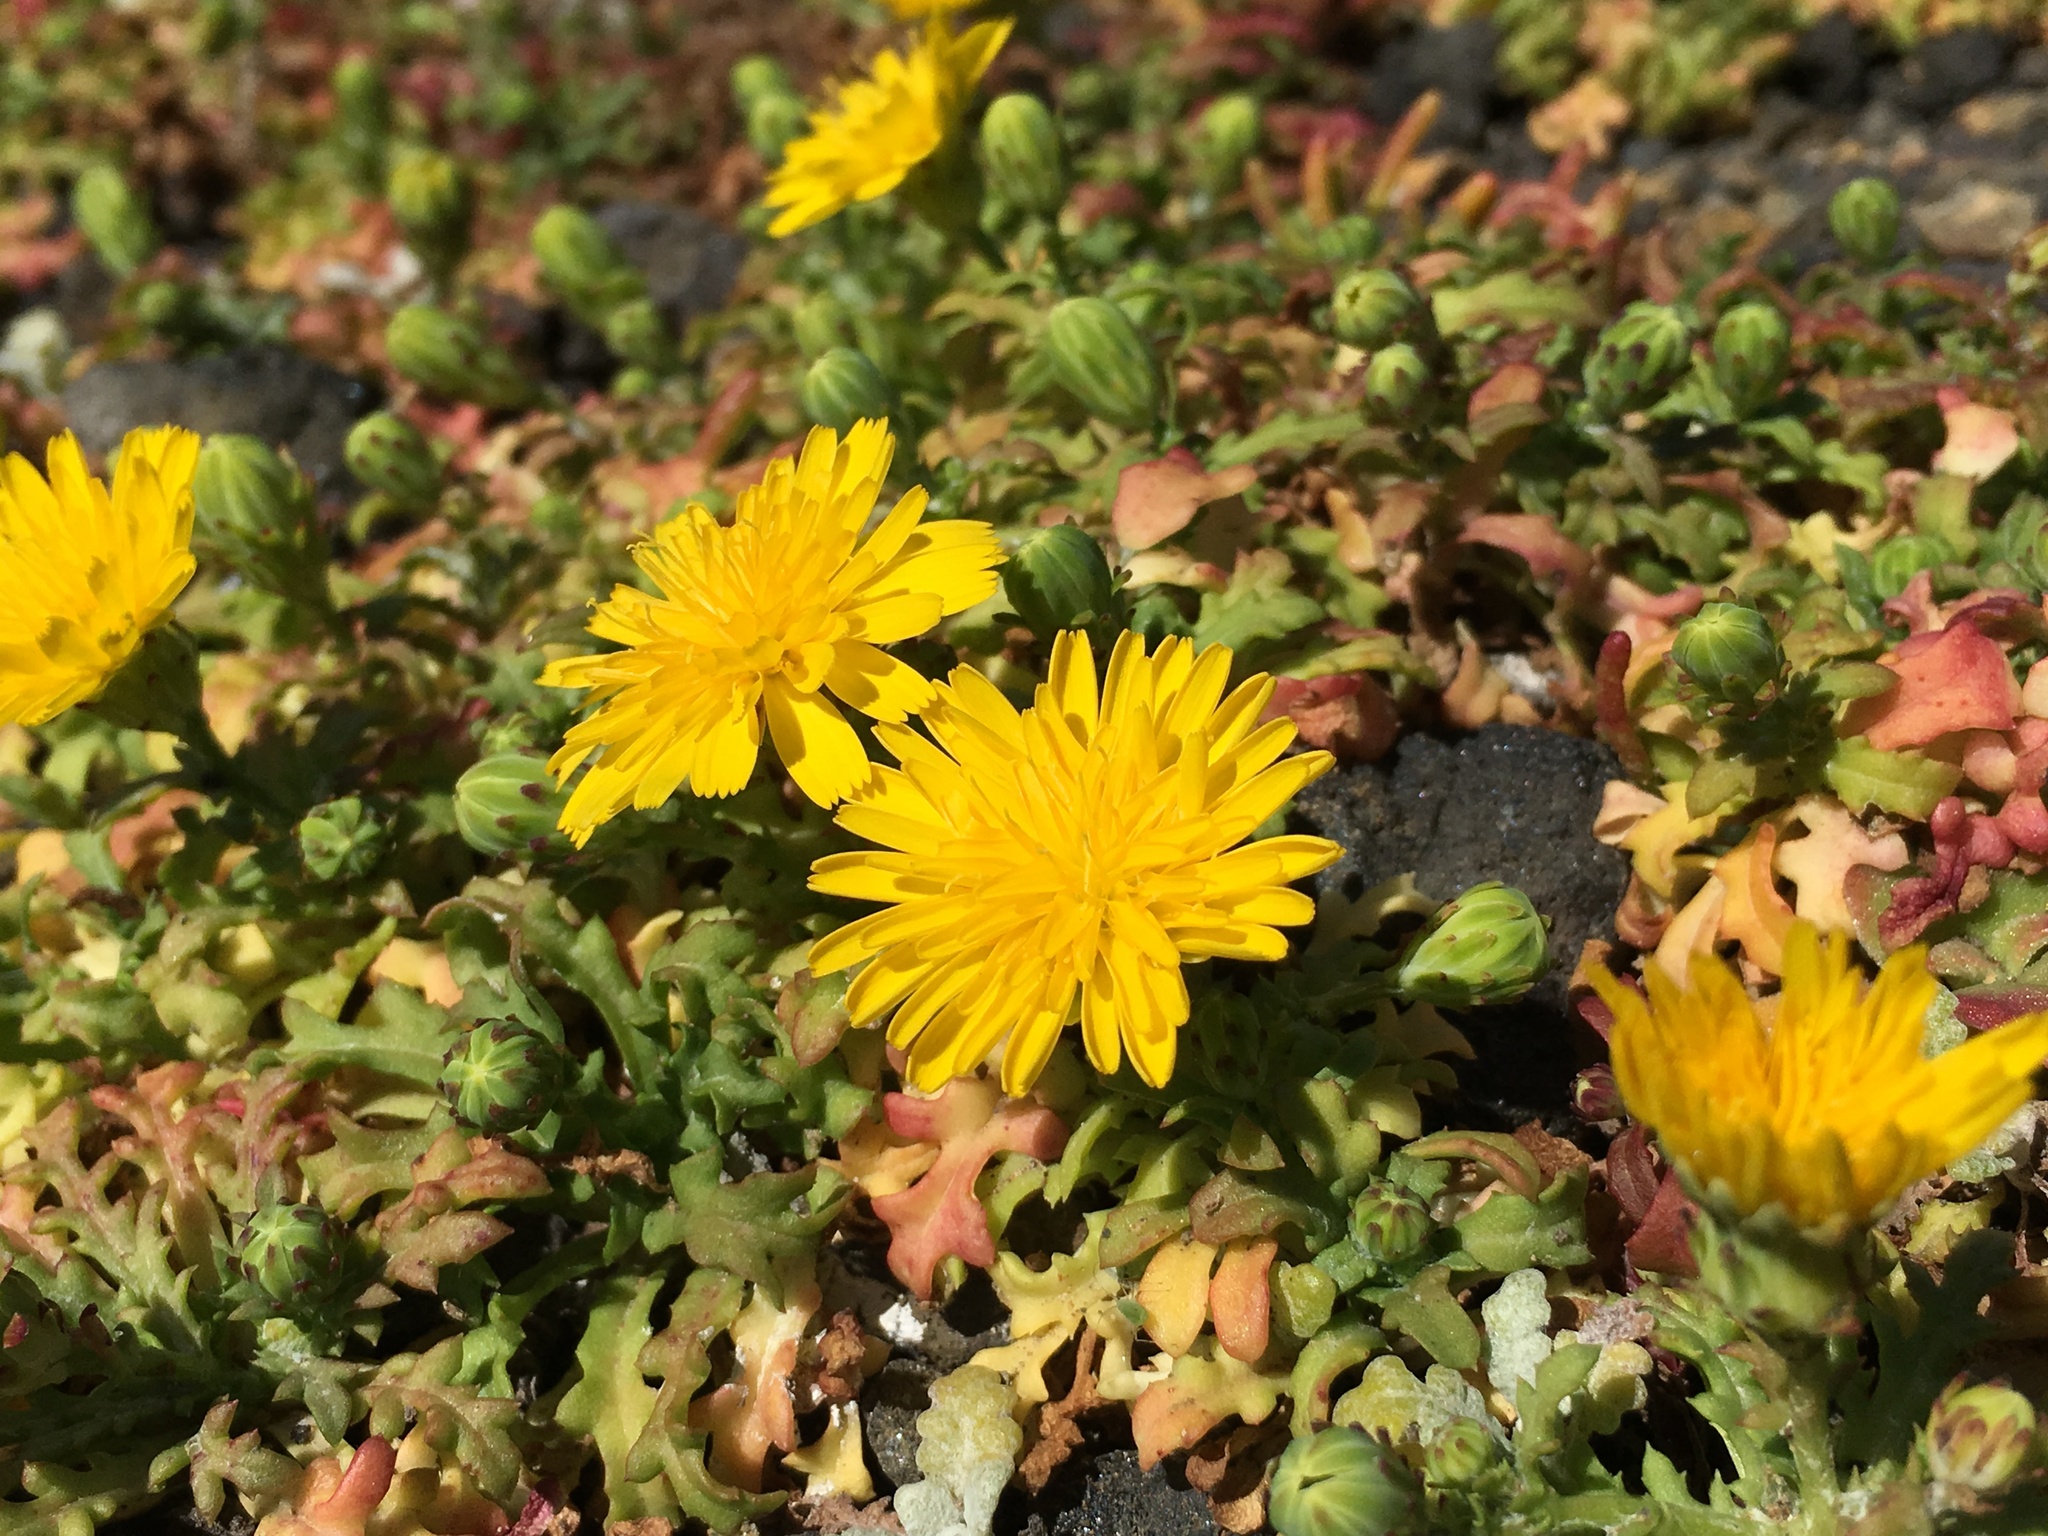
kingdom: Plantae
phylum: Tracheophyta
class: Magnoliopsida
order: Asterales
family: Asteraceae
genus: Malacothrix
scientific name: Malacothrix foliosa
